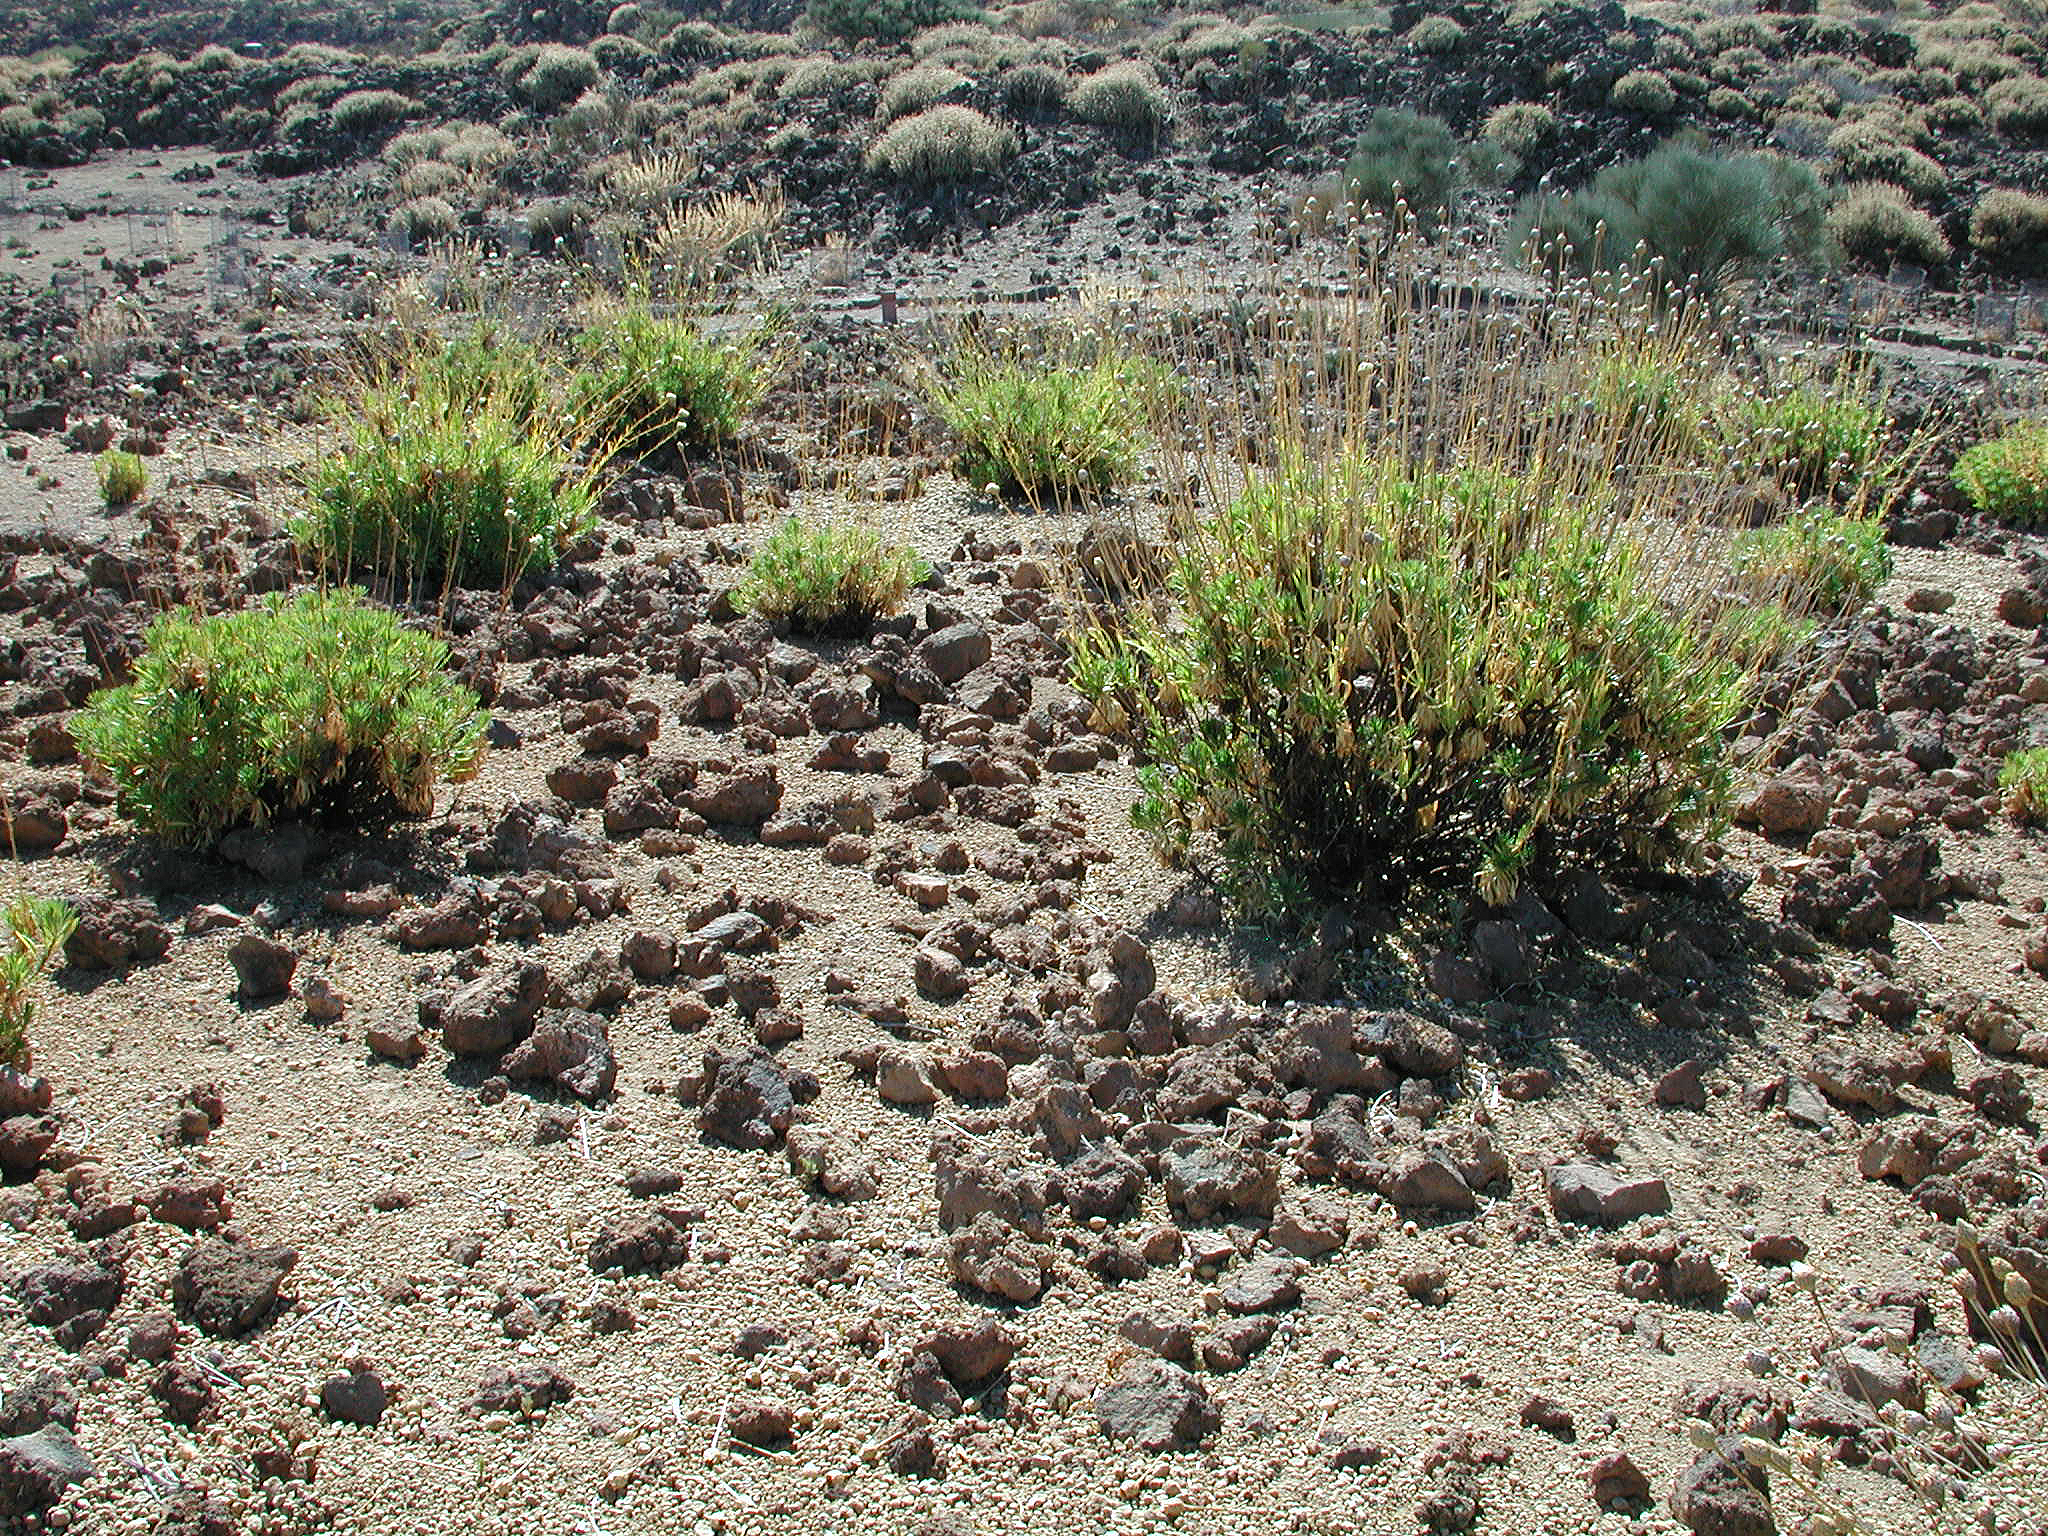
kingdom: Plantae
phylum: Tracheophyta
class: Magnoliopsida
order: Asterales
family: Asteraceae
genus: Cheirolophus
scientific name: Cheirolophus teydis
